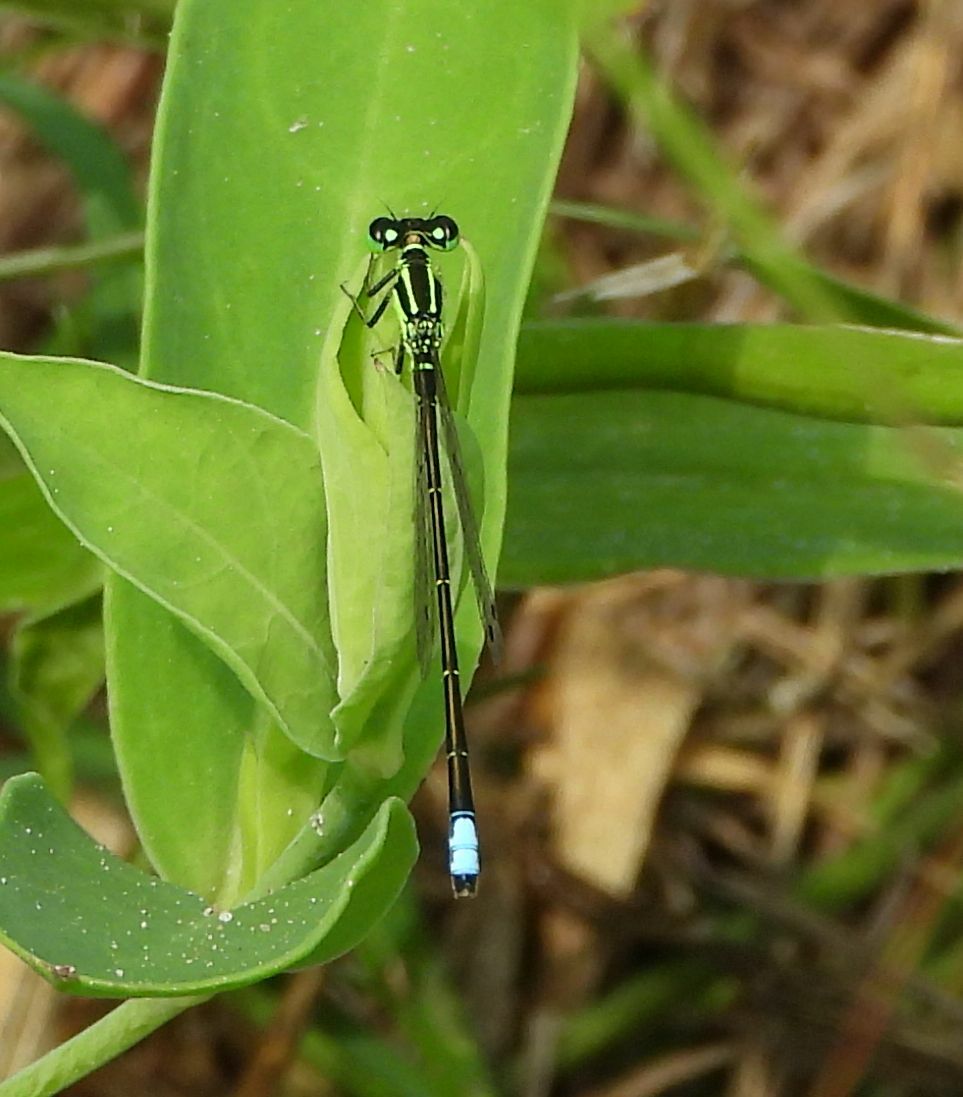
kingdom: Animalia
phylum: Arthropoda
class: Insecta
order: Odonata
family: Coenagrionidae
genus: Ischnura
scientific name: Ischnura verticalis
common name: Eastern forktail
